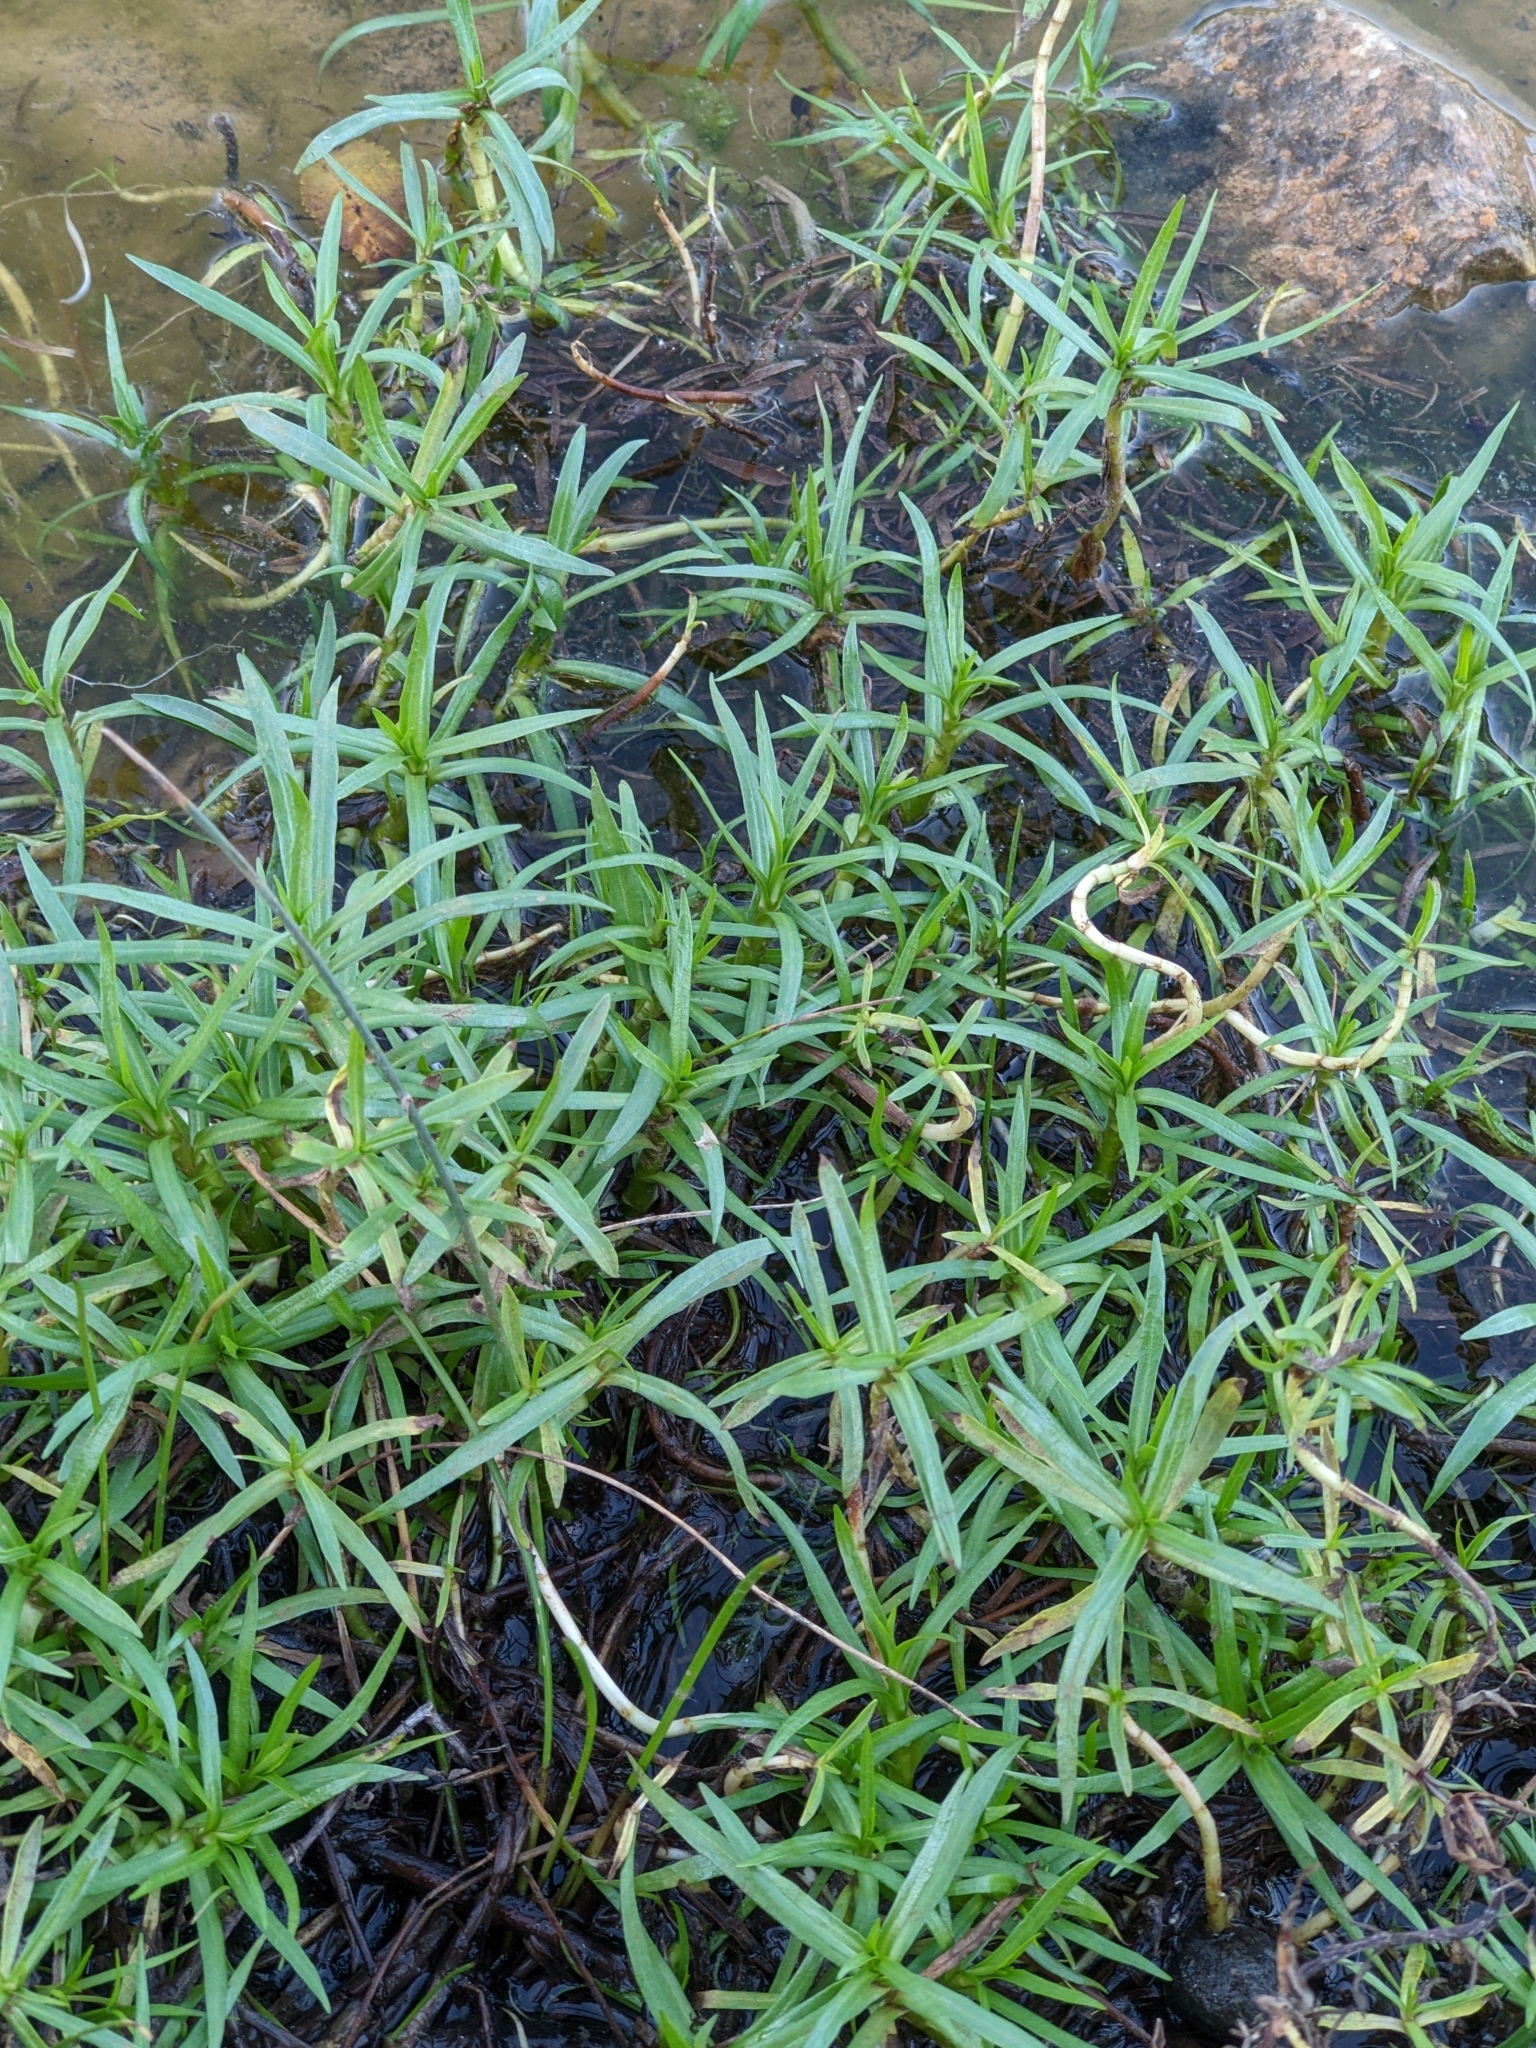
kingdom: Plantae
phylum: Tracheophyta
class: Magnoliopsida
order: Lamiales
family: Lamiaceae
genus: Mentha
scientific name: Mentha cervina
